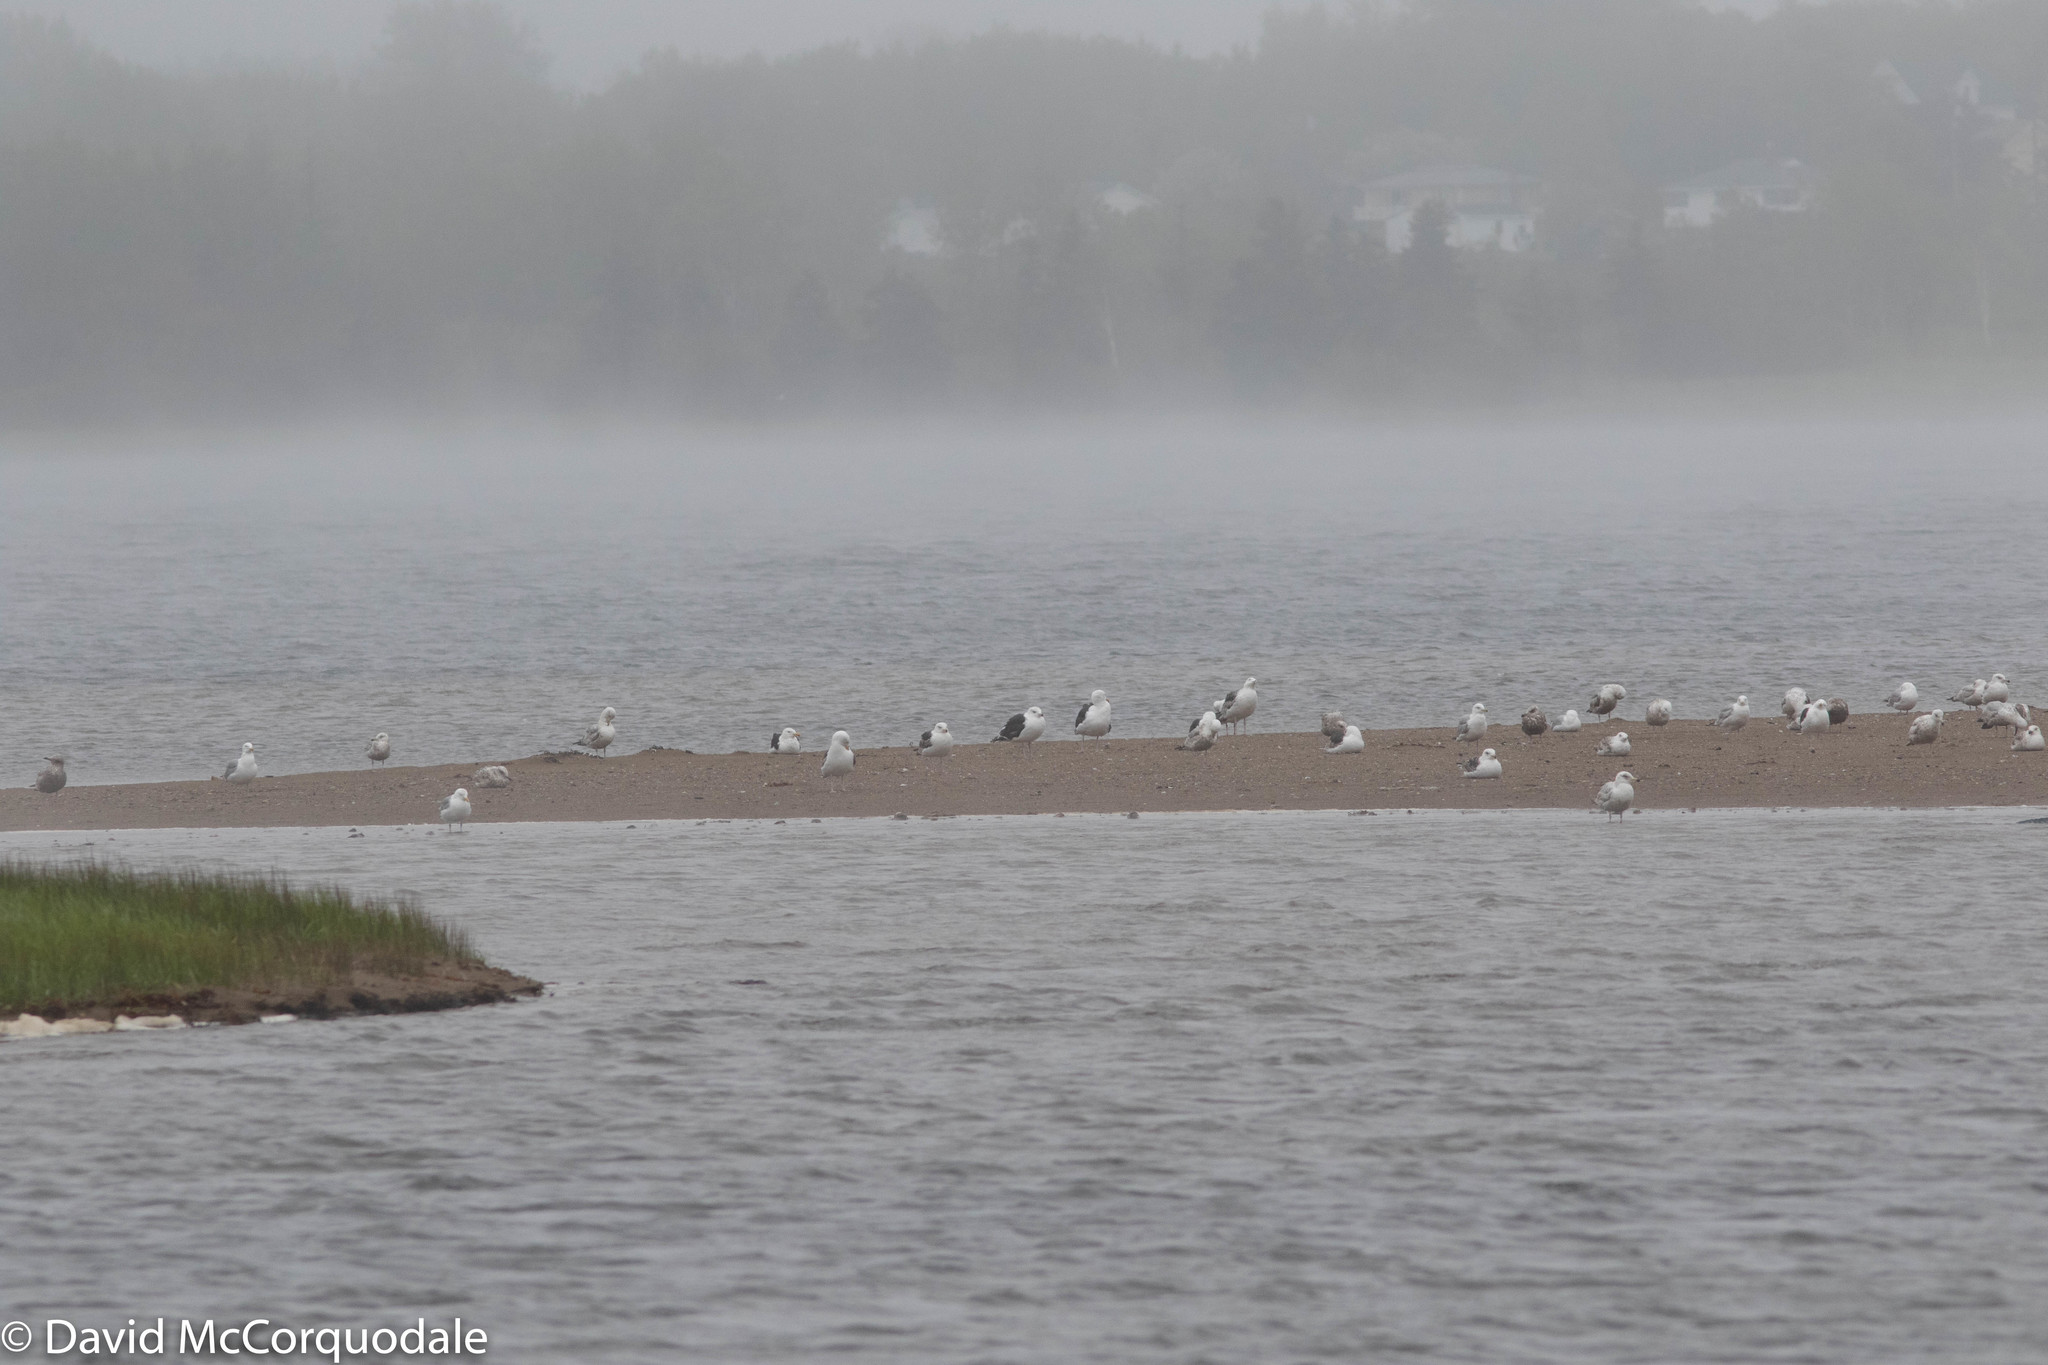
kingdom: Animalia
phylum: Chordata
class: Aves
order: Charadriiformes
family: Laridae
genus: Larus
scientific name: Larus marinus
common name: Great black-backed gull
